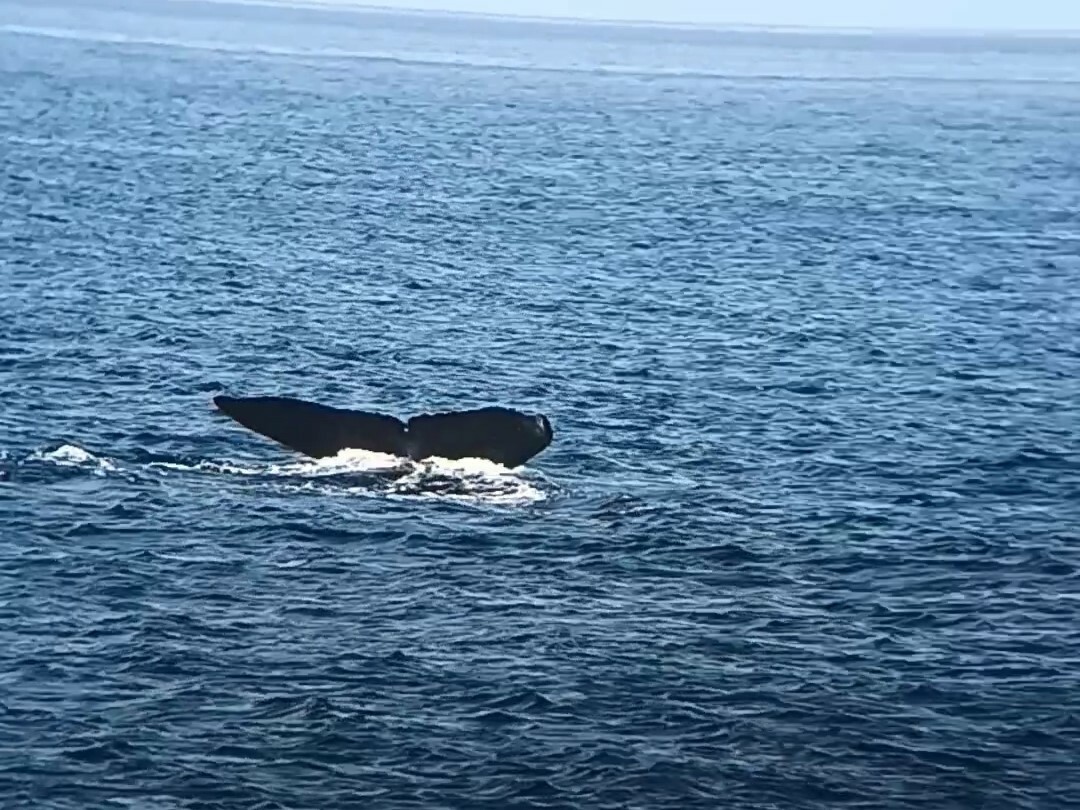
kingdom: Animalia
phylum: Chordata
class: Mammalia
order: Cetacea
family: Balaenopteridae
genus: Megaptera
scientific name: Megaptera novaeangliae
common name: Humpback whale
